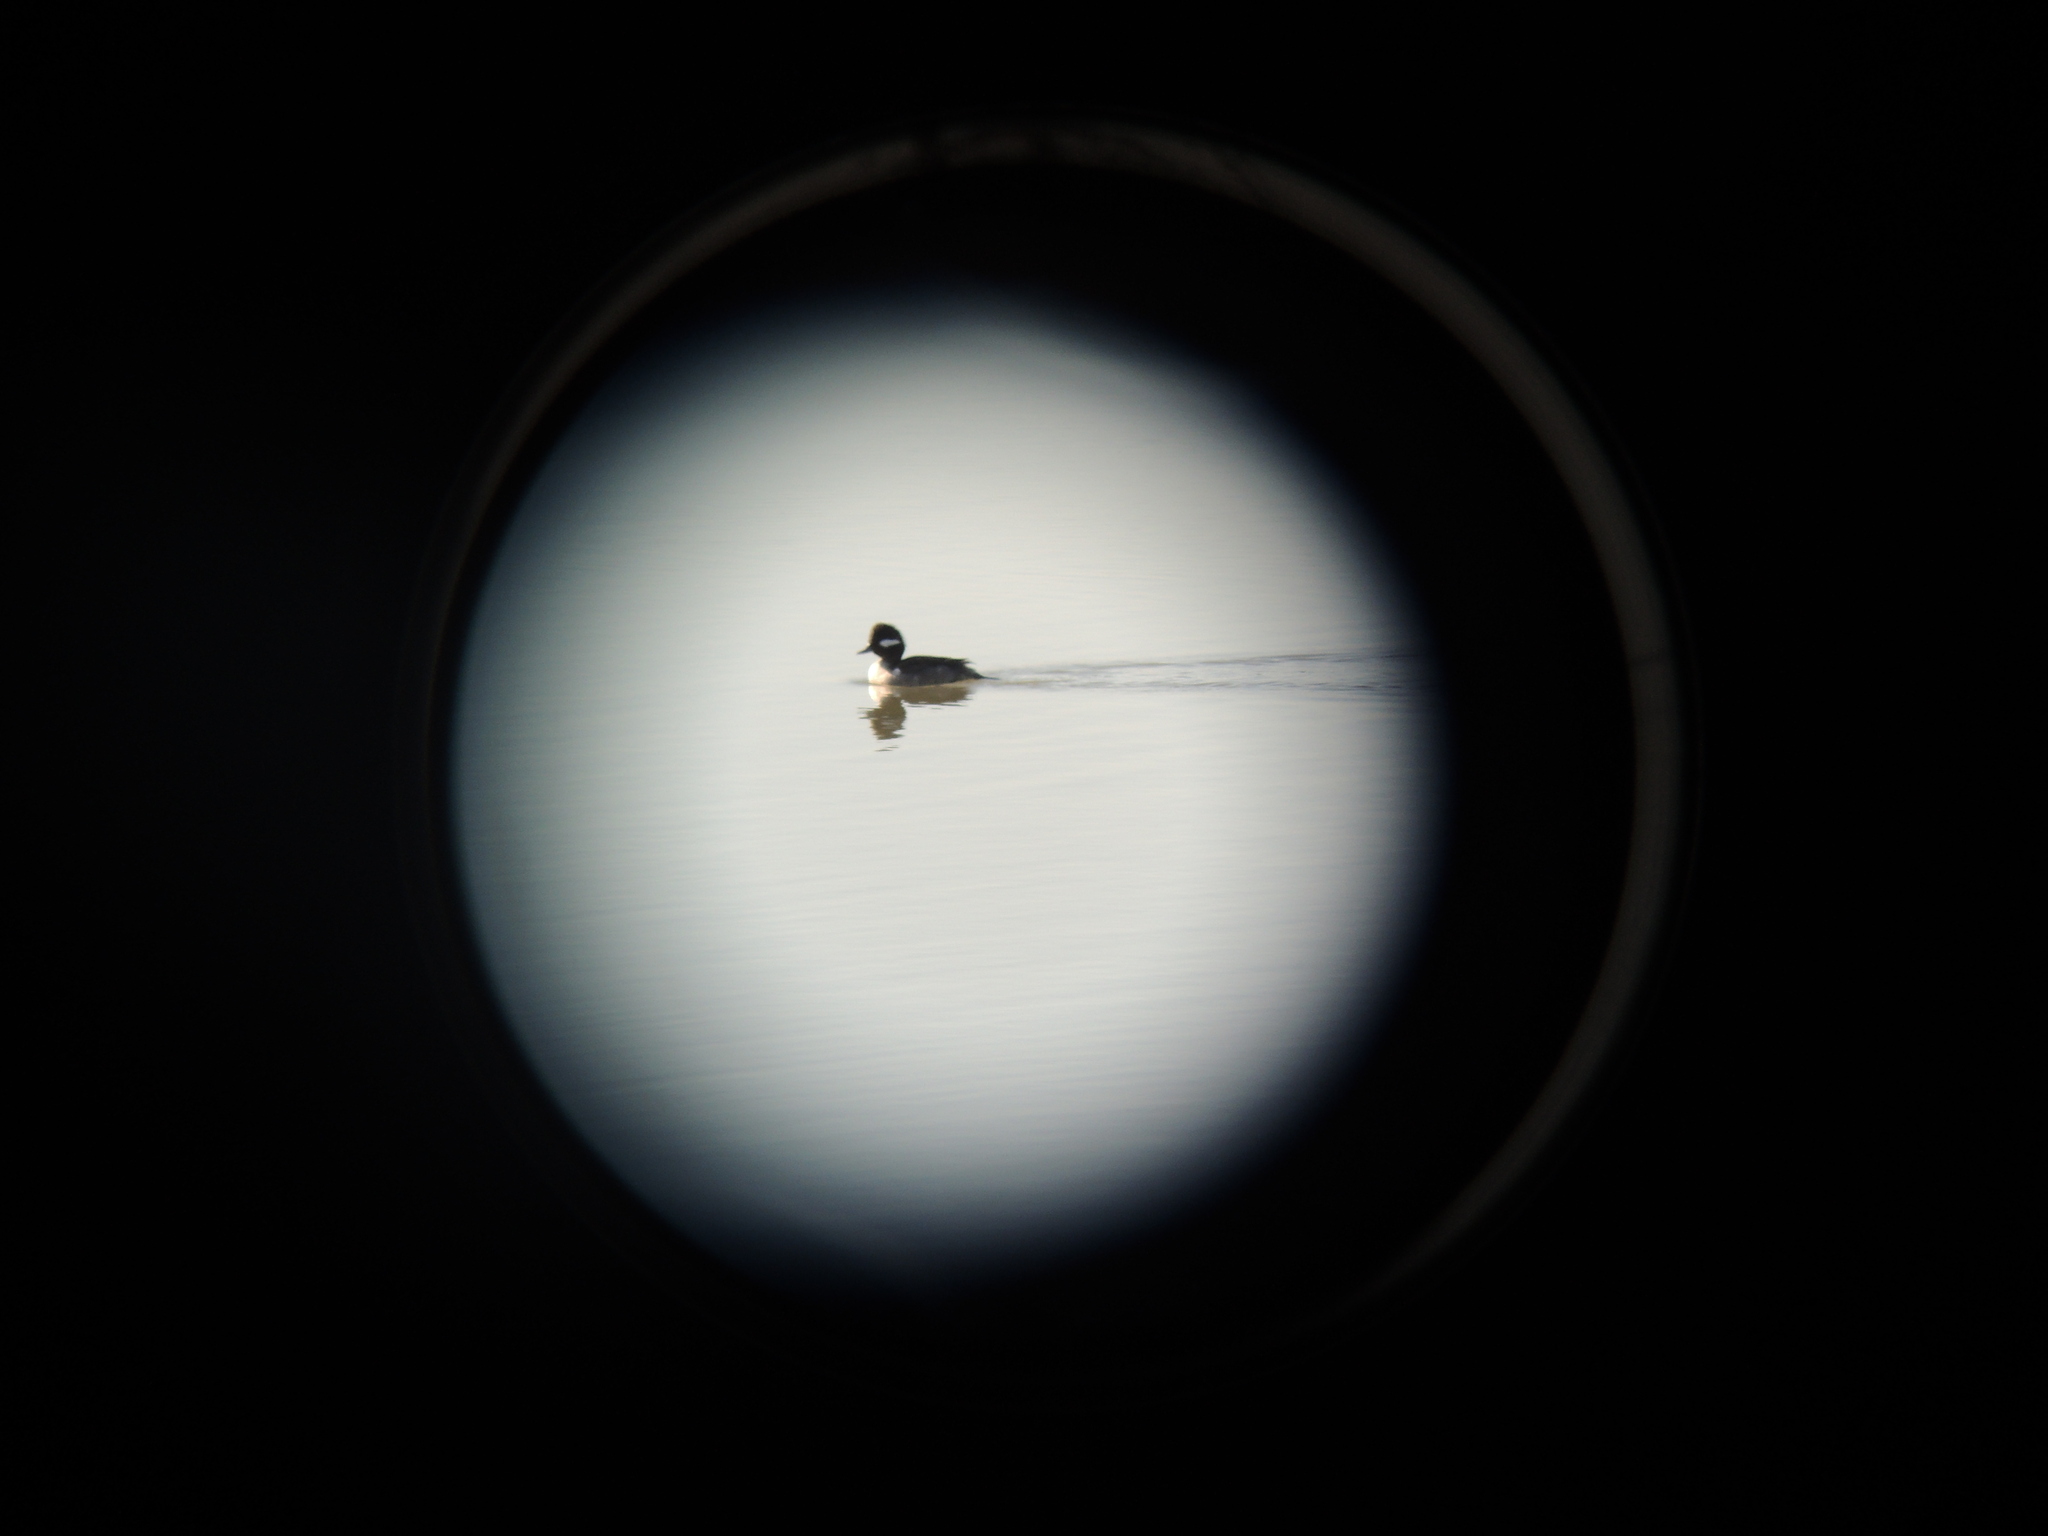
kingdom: Animalia
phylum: Chordata
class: Aves
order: Anseriformes
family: Anatidae
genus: Bucephala
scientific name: Bucephala albeola
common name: Bufflehead
